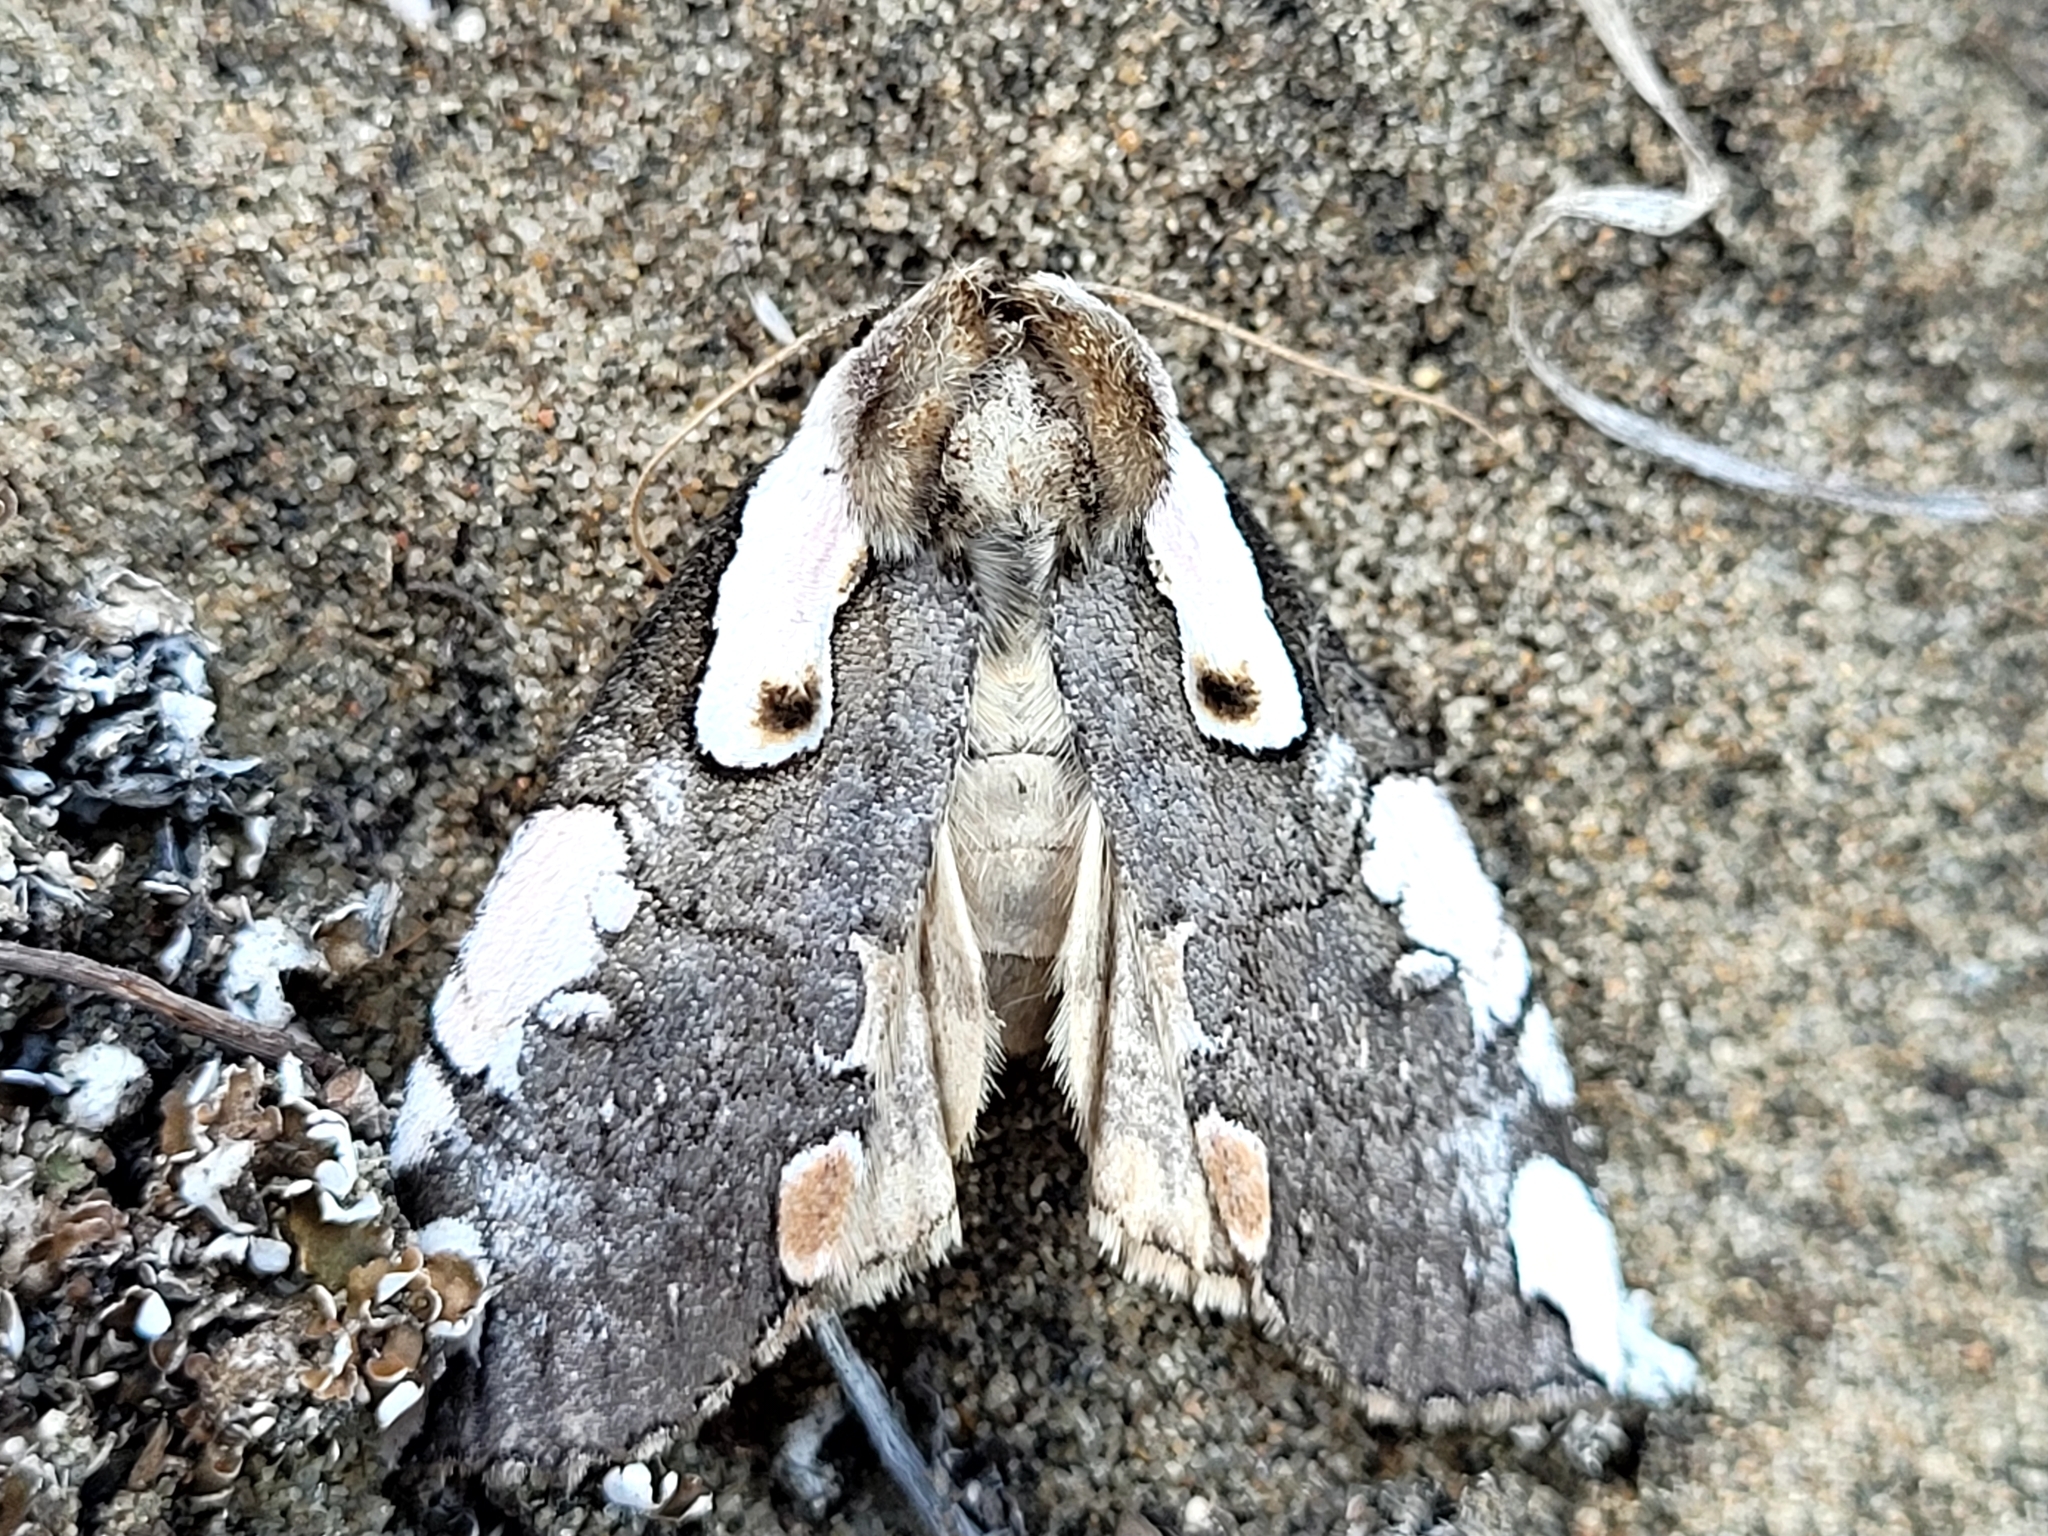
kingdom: Animalia
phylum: Arthropoda
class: Insecta
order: Lepidoptera
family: Drepanidae
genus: Euthyatira
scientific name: Euthyatira pudens
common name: Dogwood thyatirid moth
